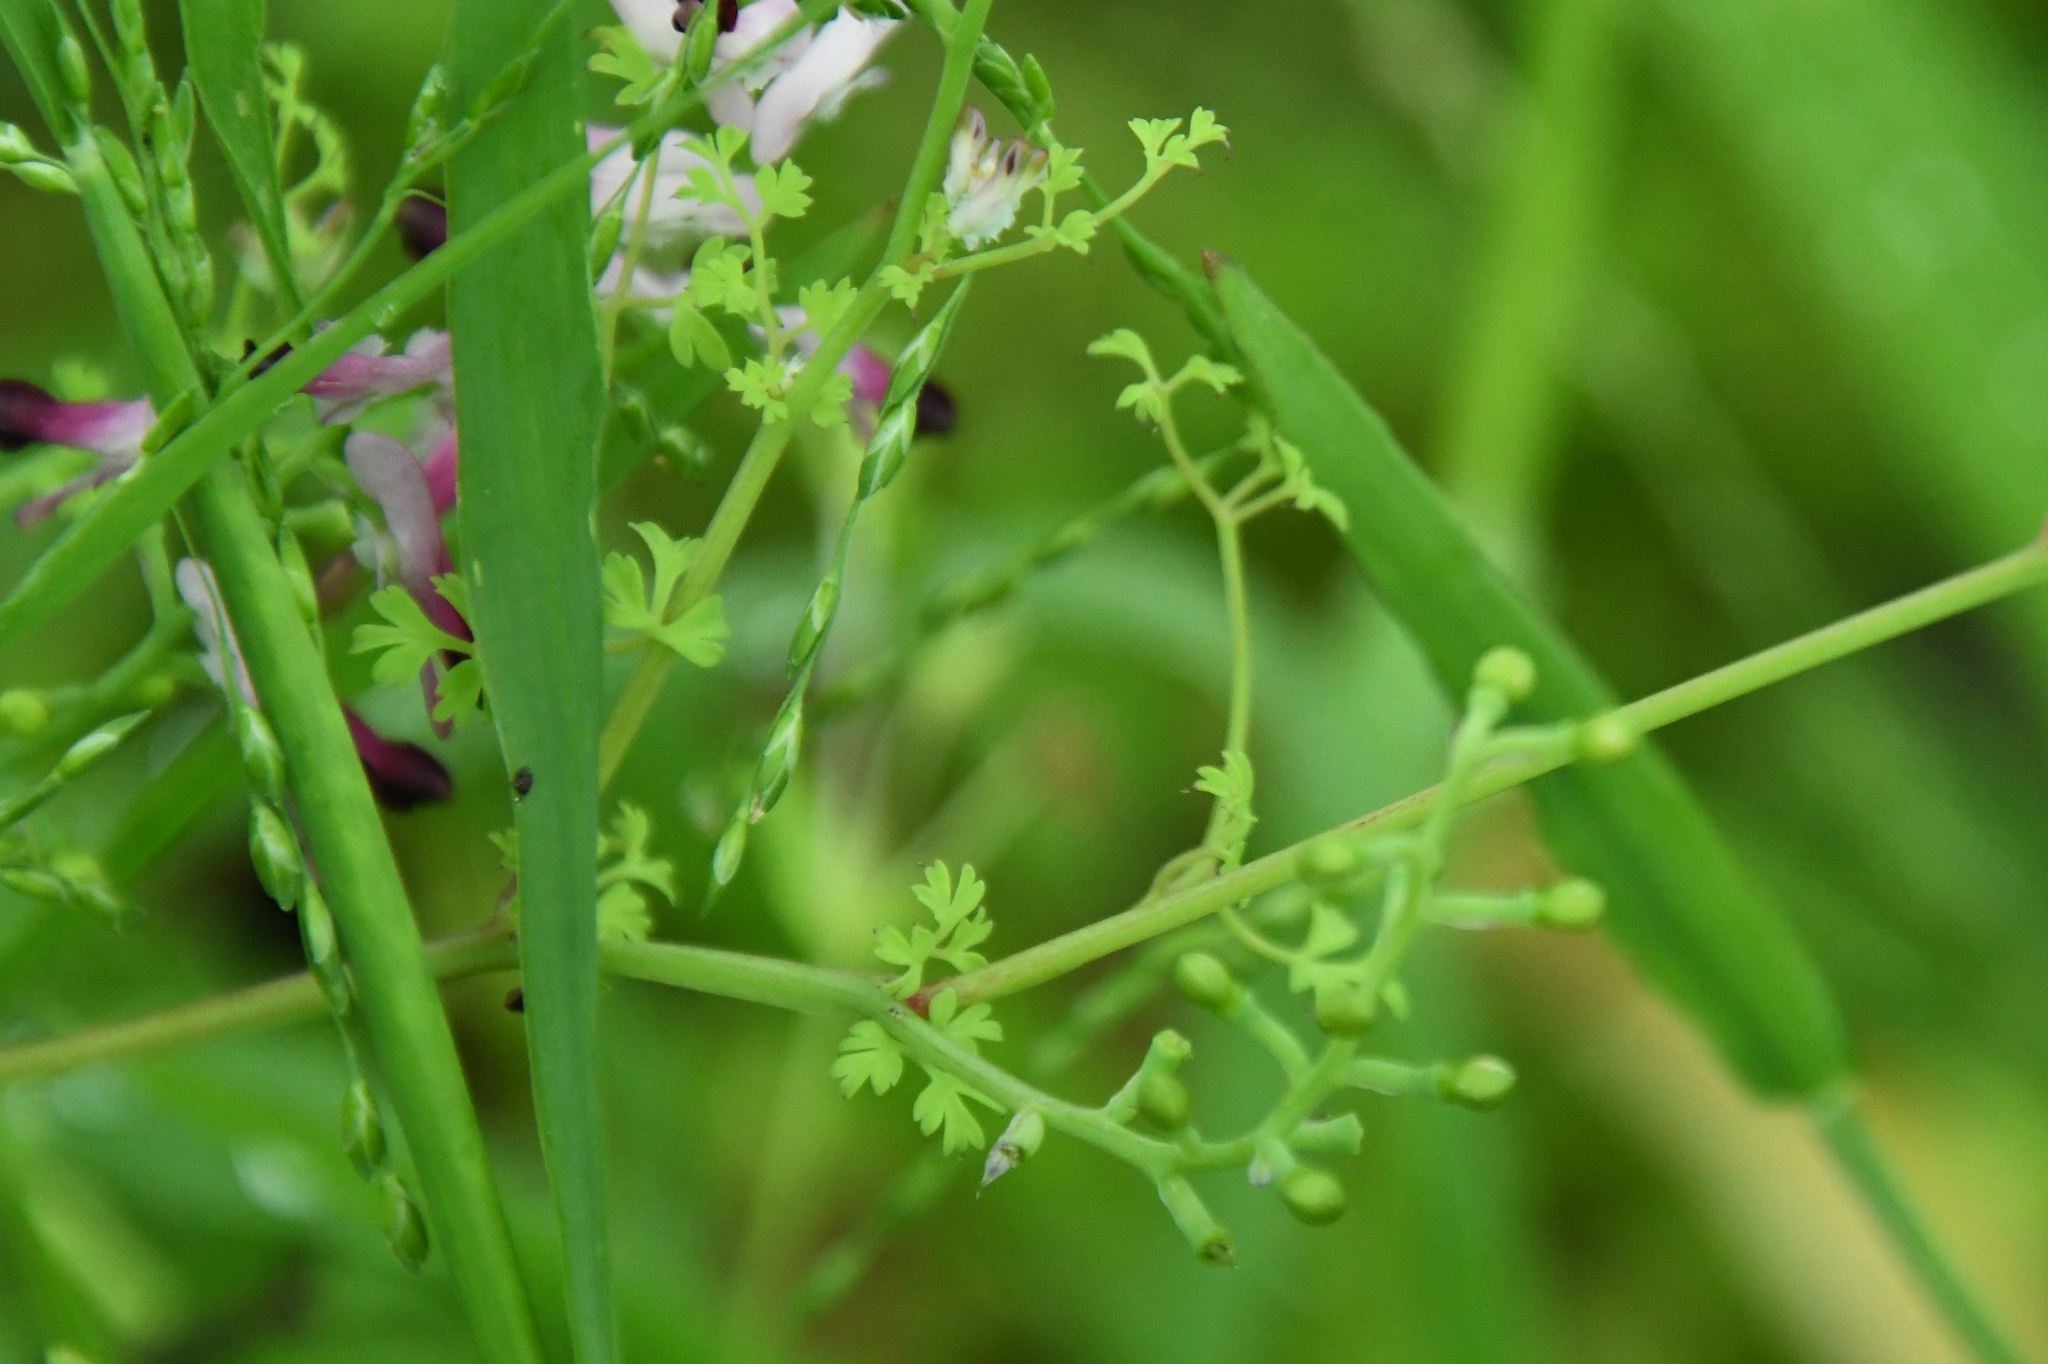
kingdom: Plantae
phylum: Tracheophyta
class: Magnoliopsida
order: Ranunculales
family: Papaveraceae
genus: Fumaria
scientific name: Fumaria muralis
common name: Common ramping-fumitory
